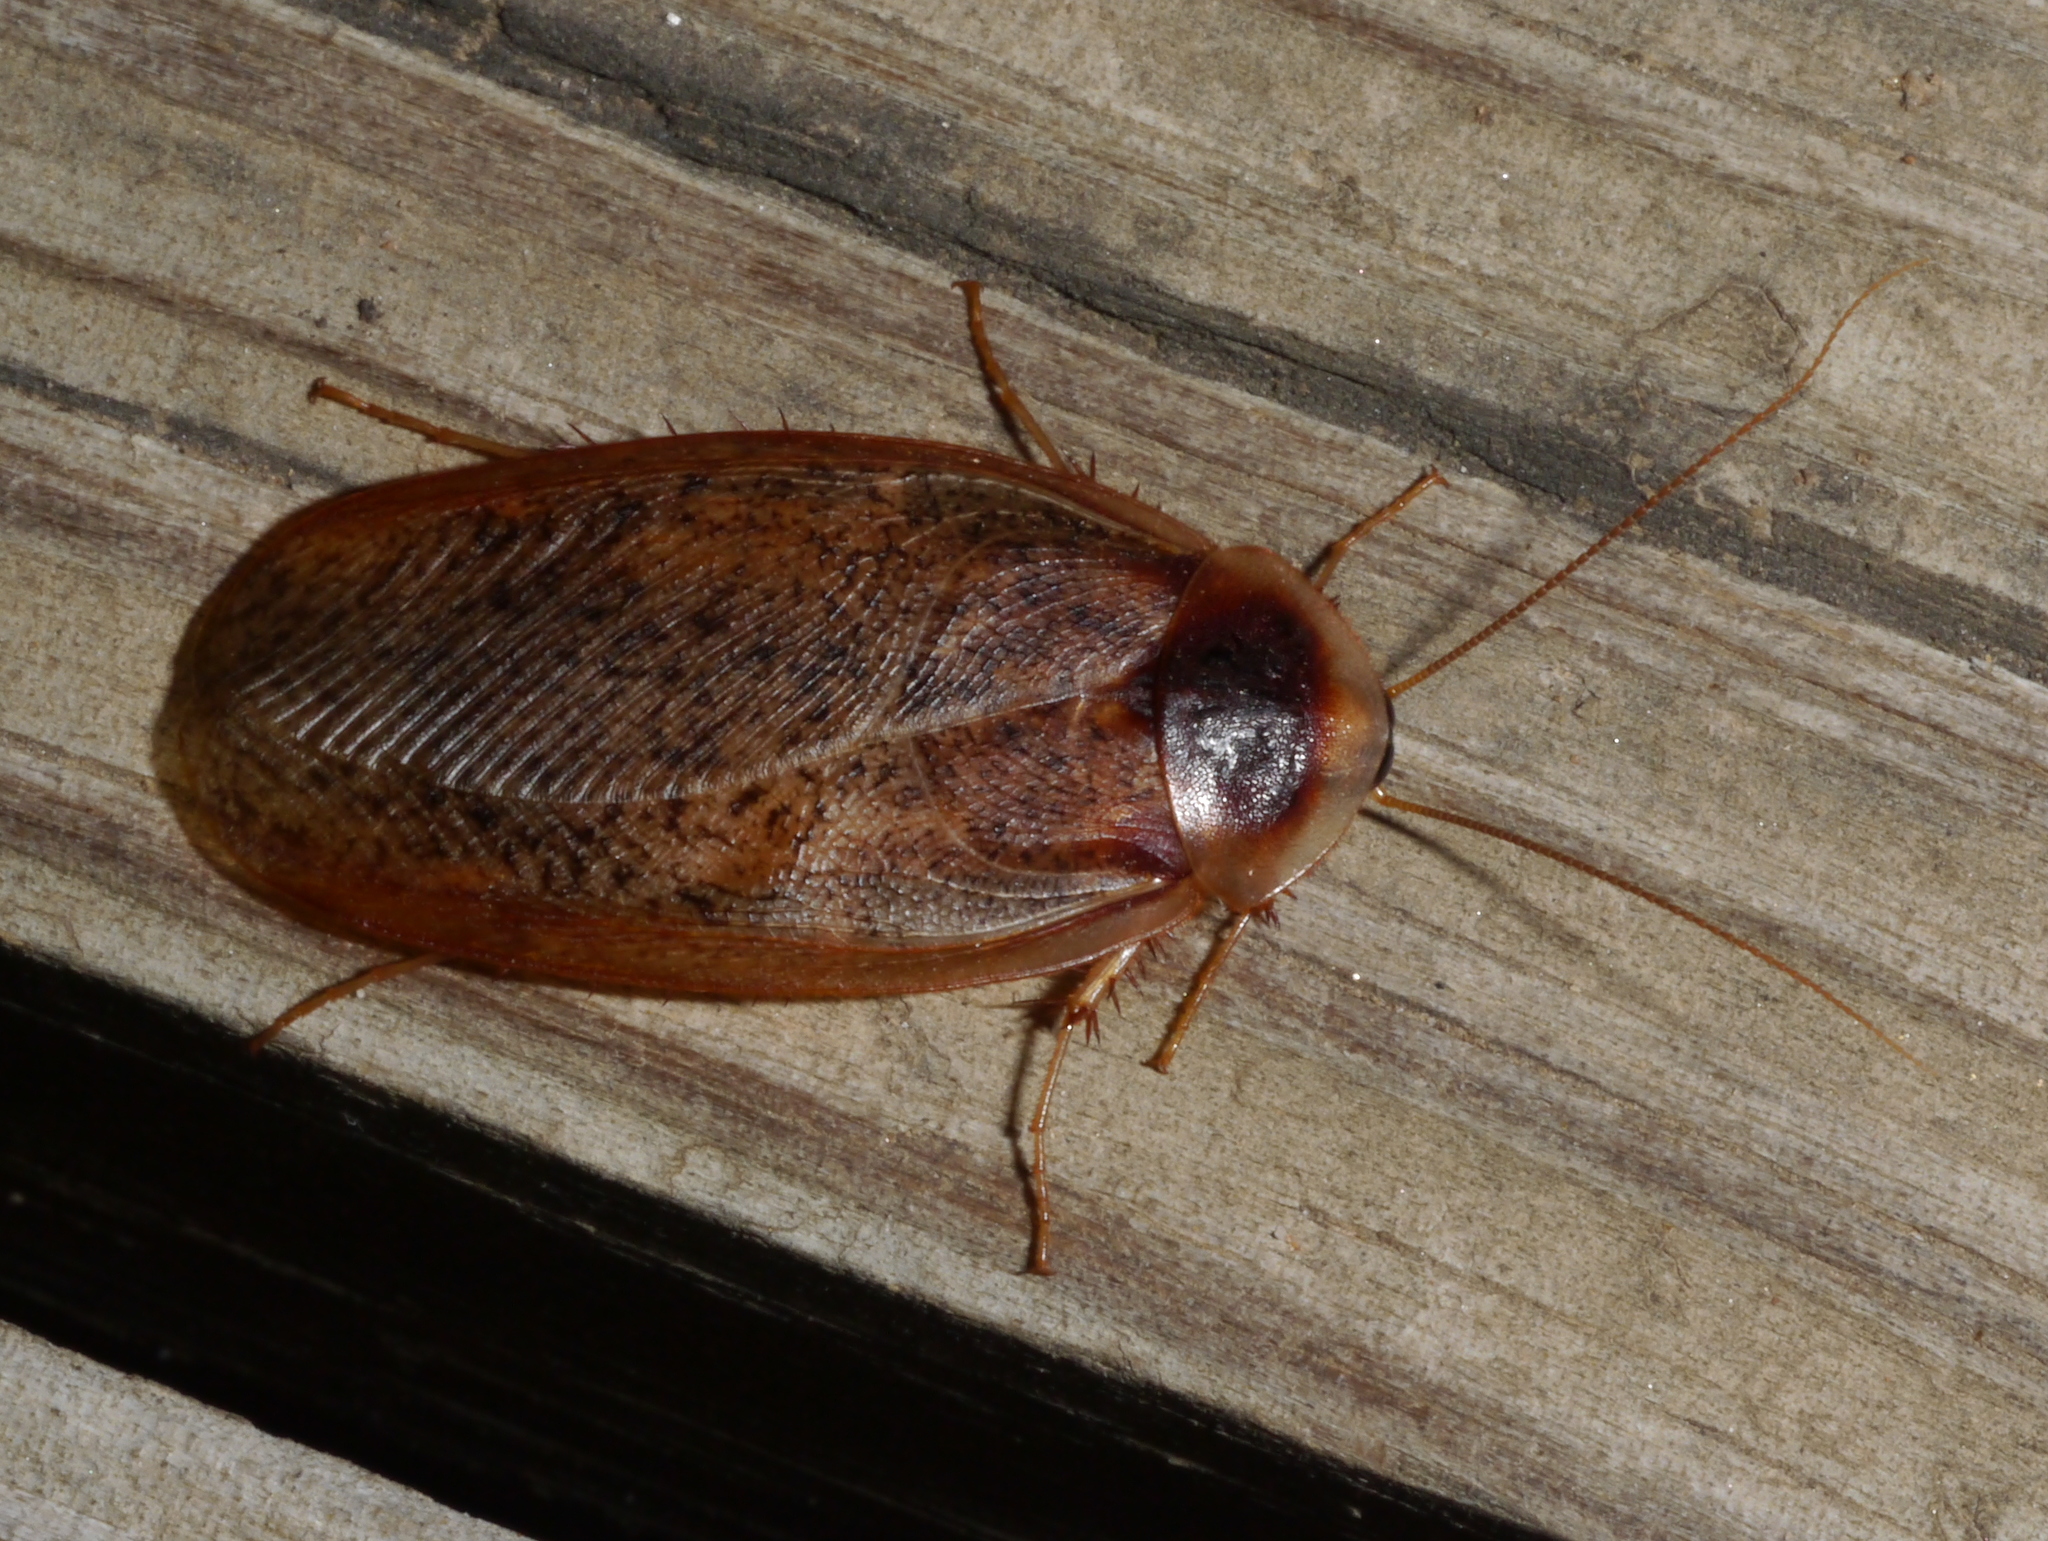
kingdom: Animalia
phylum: Arthropoda
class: Insecta
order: Blattodea
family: Corydiidae
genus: Arenivaga
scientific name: Arenivaga bolliana
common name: Boll's sand cockroach
